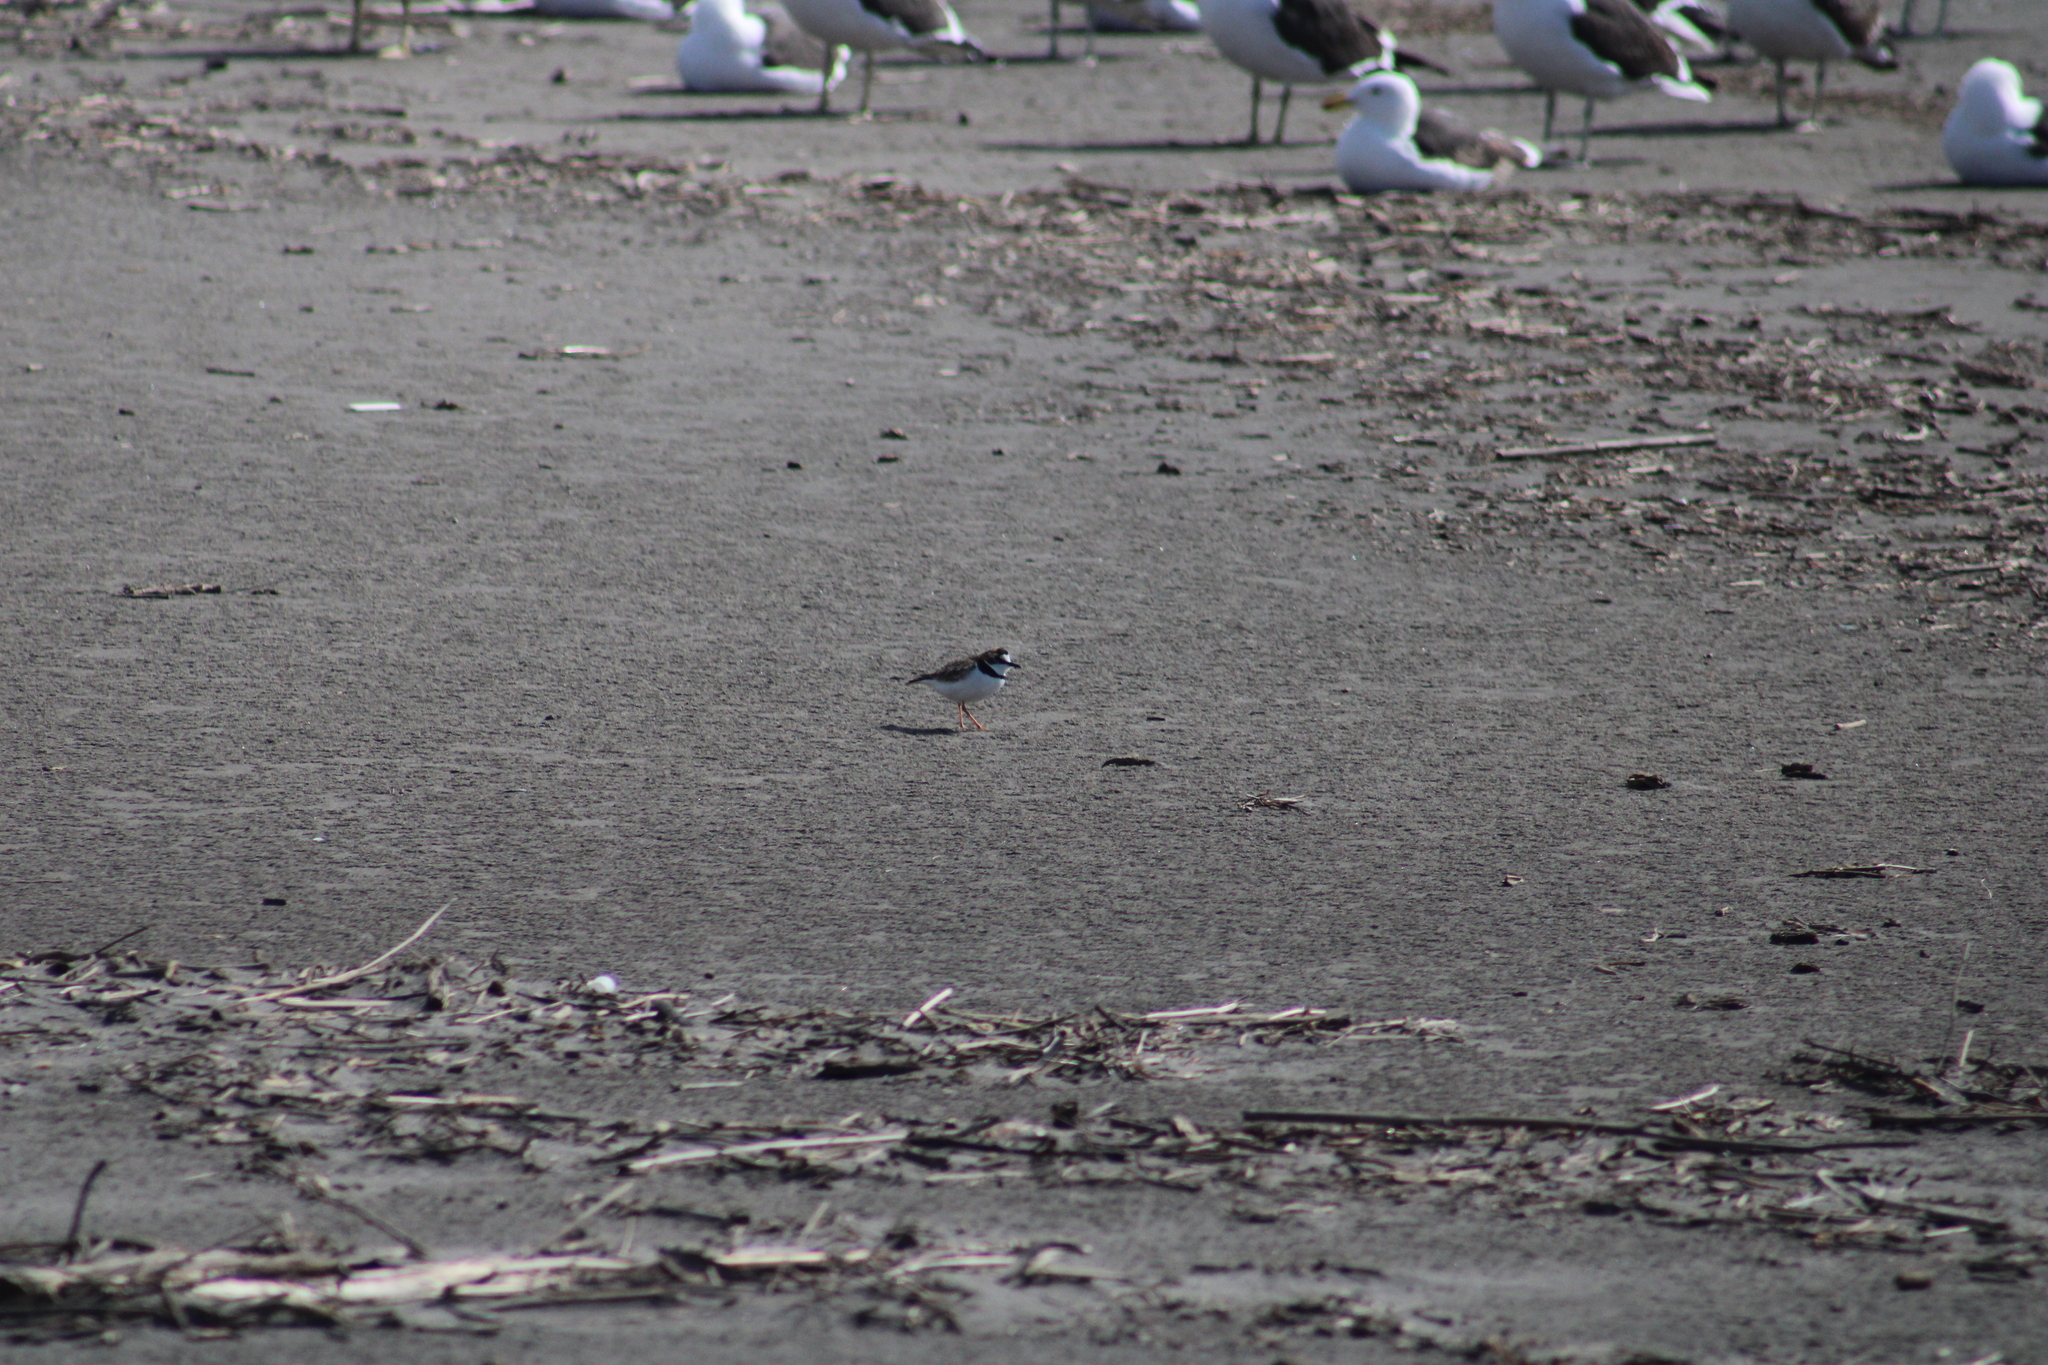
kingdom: Animalia
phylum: Chordata
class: Aves
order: Charadriiformes
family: Charadriidae
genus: Anarhynchus
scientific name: Anarhynchus
